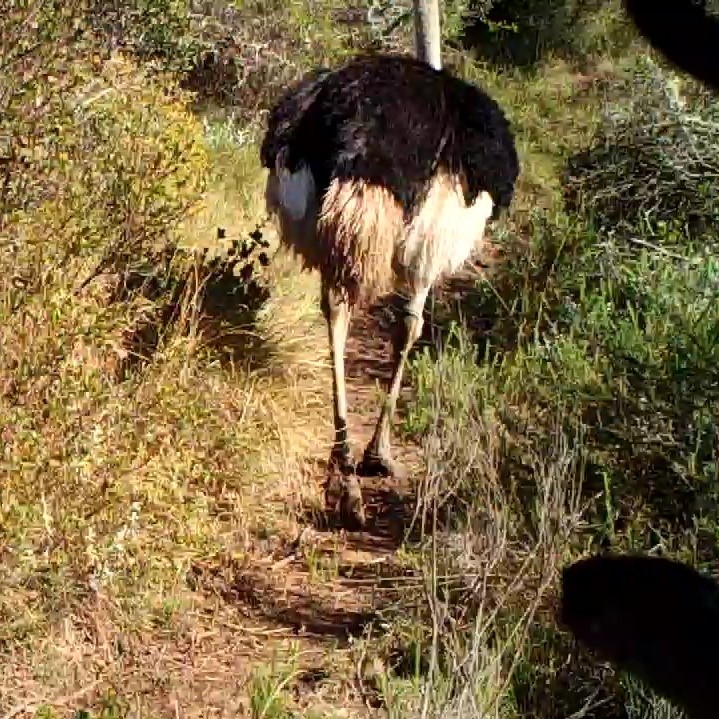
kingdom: Animalia
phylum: Chordata
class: Aves
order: Struthioniformes
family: Struthionidae
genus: Struthio
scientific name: Struthio camelus
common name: Common ostrich
